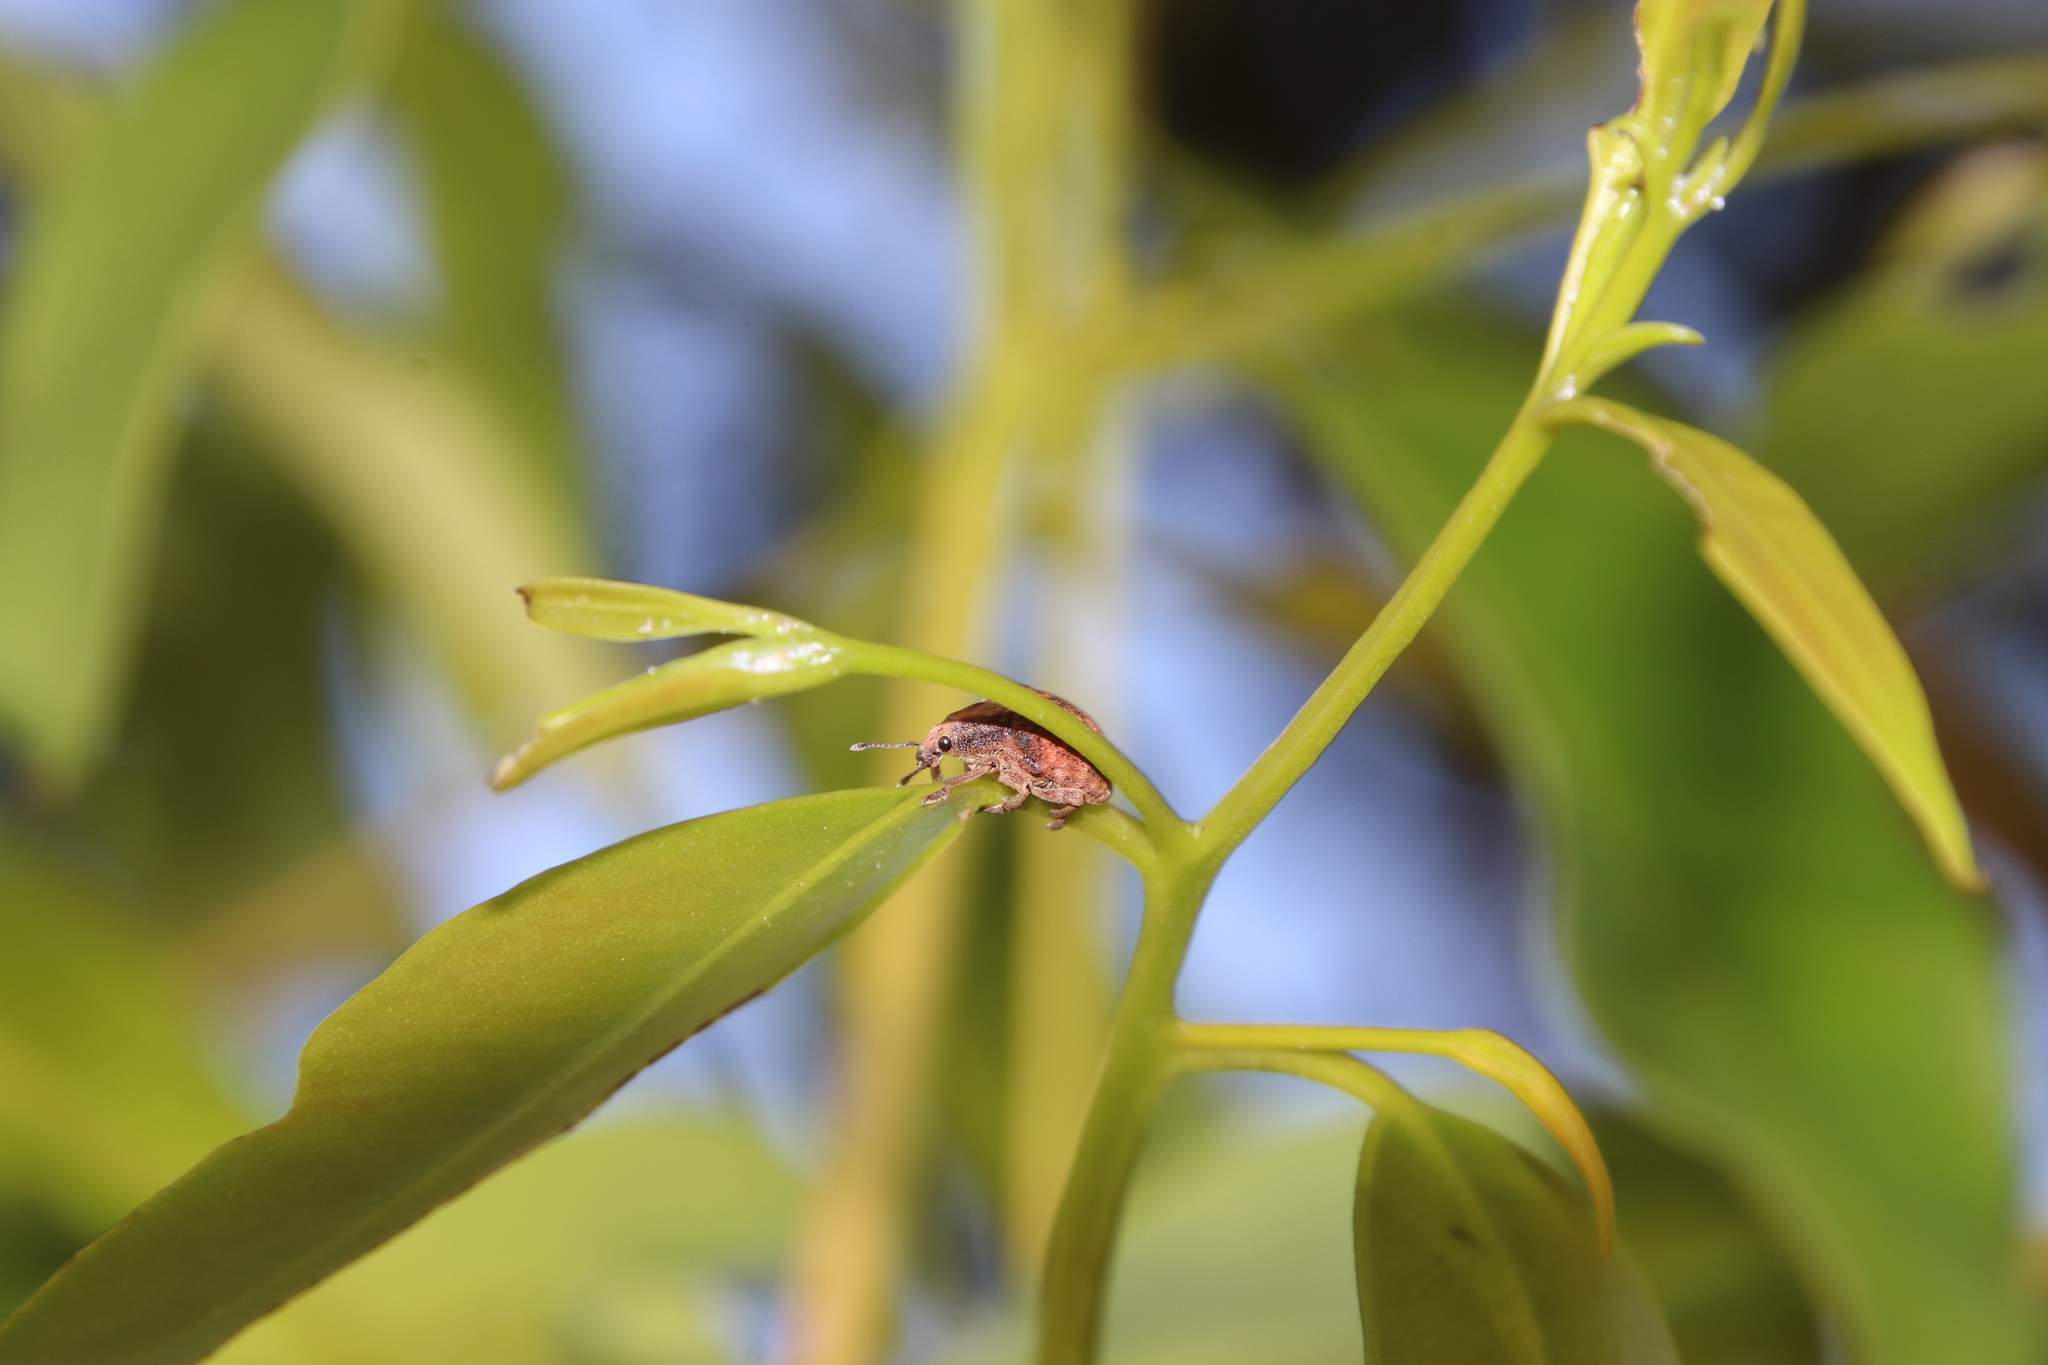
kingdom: Animalia
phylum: Arthropoda
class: Insecta
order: Coleoptera
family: Curculionidae
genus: Gonipterus
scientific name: Gonipterus
